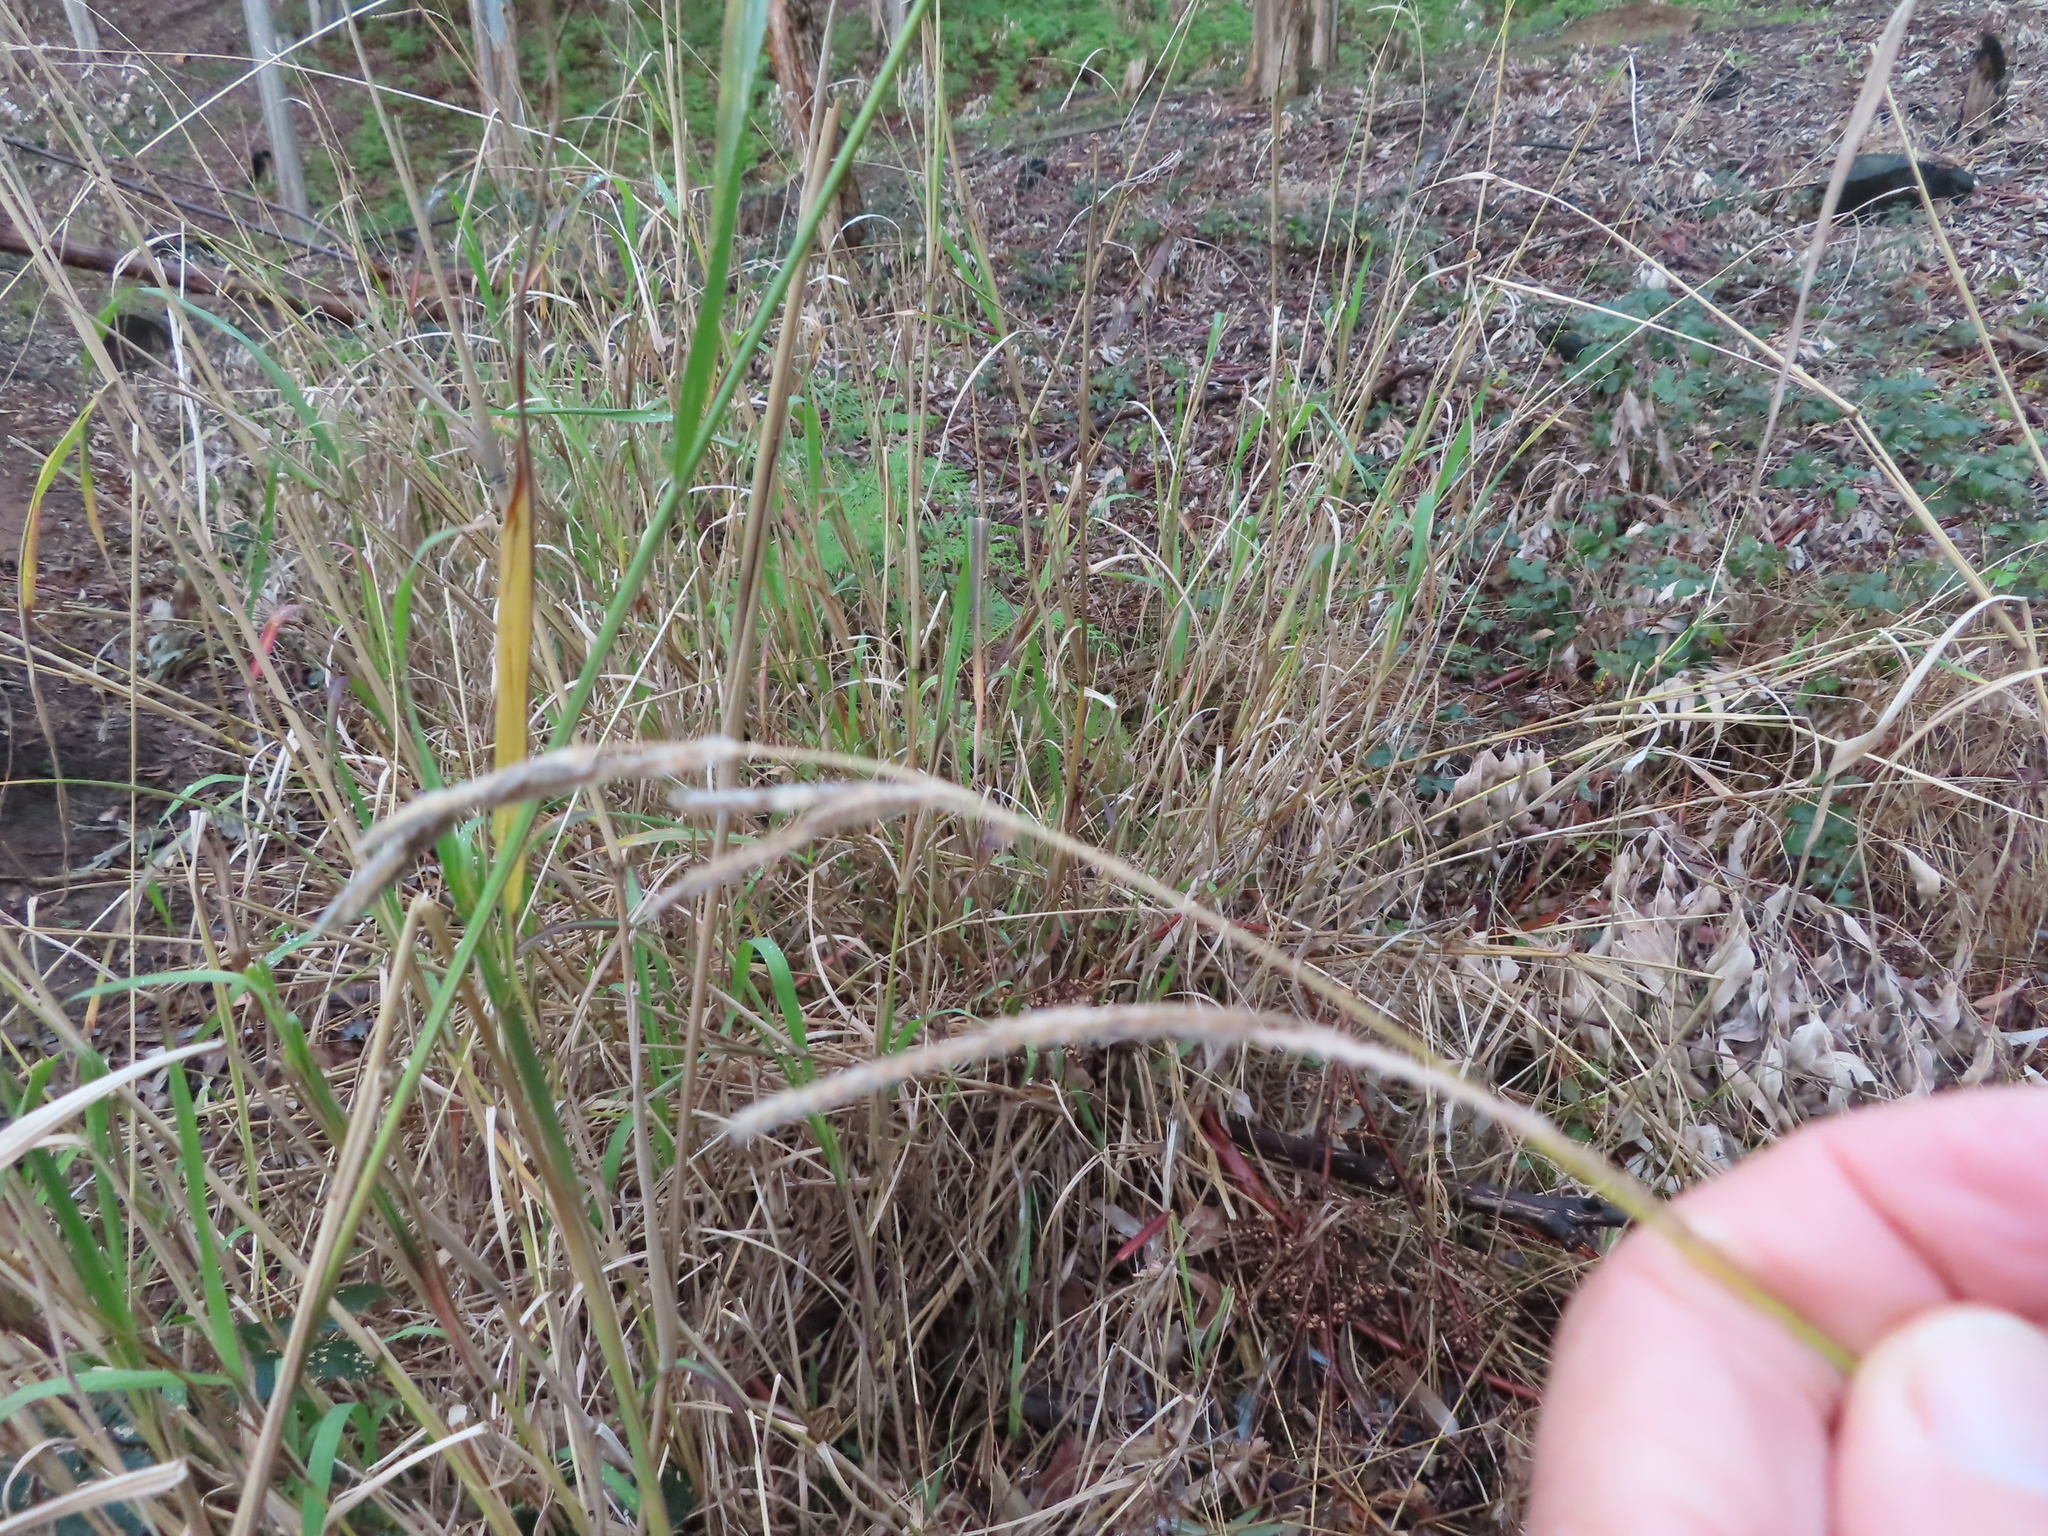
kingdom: Plantae
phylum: Tracheophyta
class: Liliopsida
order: Poales
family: Poaceae
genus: Paspalum
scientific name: Paspalum urvillei
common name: Vasey's grass
